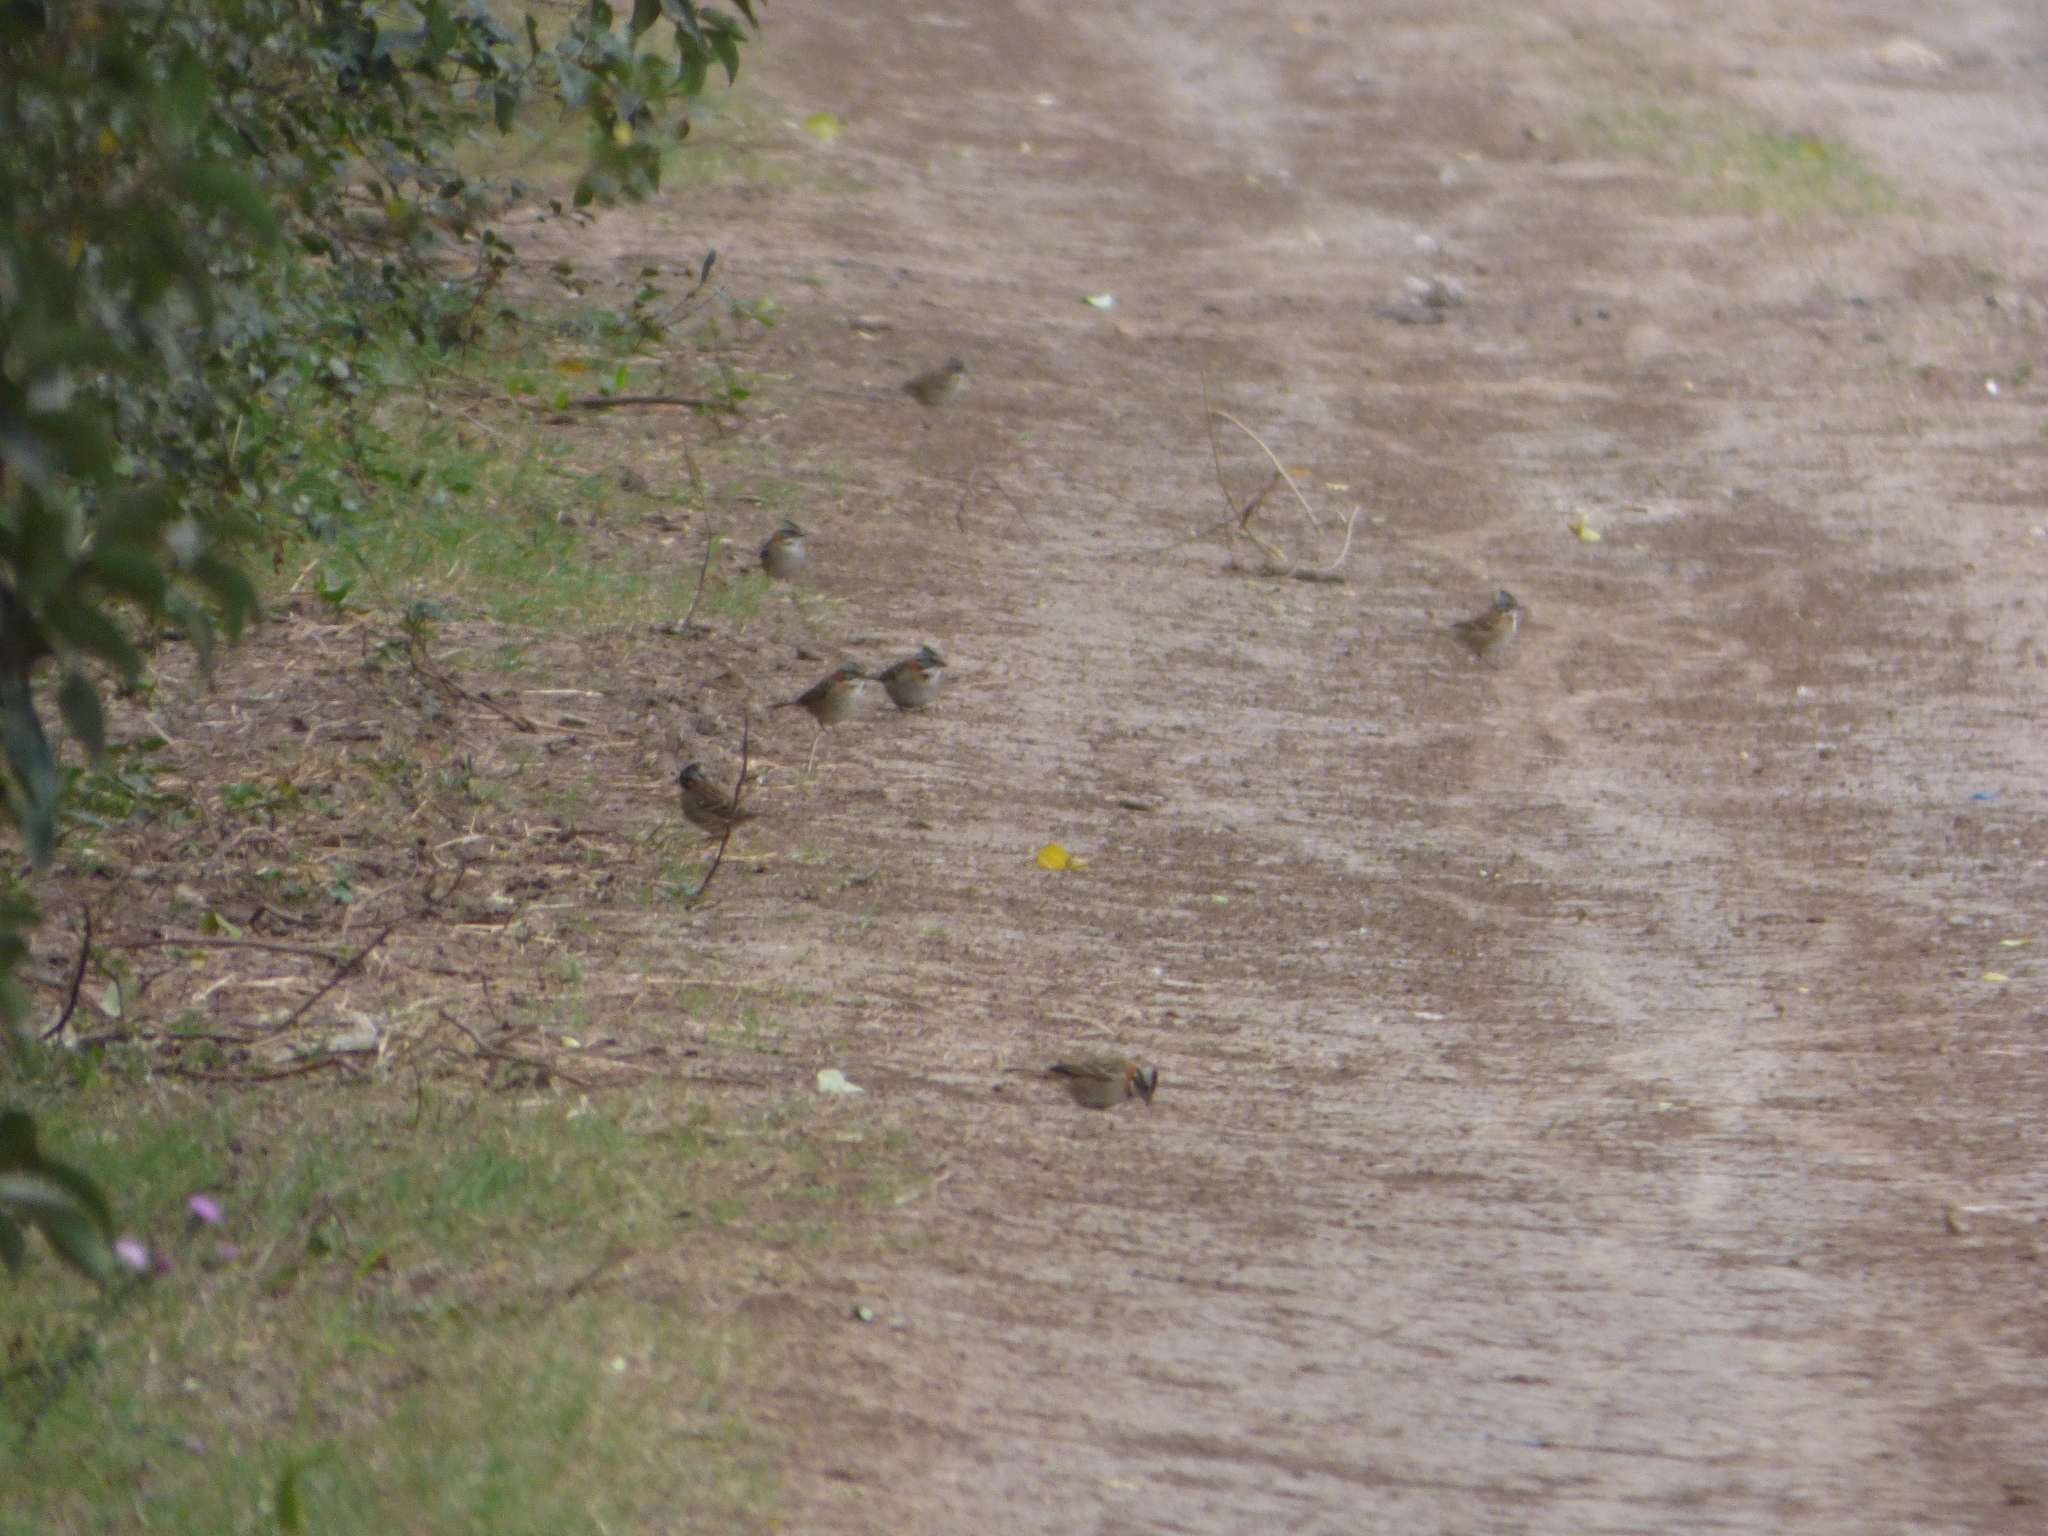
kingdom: Animalia
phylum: Chordata
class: Aves
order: Passeriformes
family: Passerellidae
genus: Zonotrichia
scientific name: Zonotrichia capensis
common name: Rufous-collared sparrow
